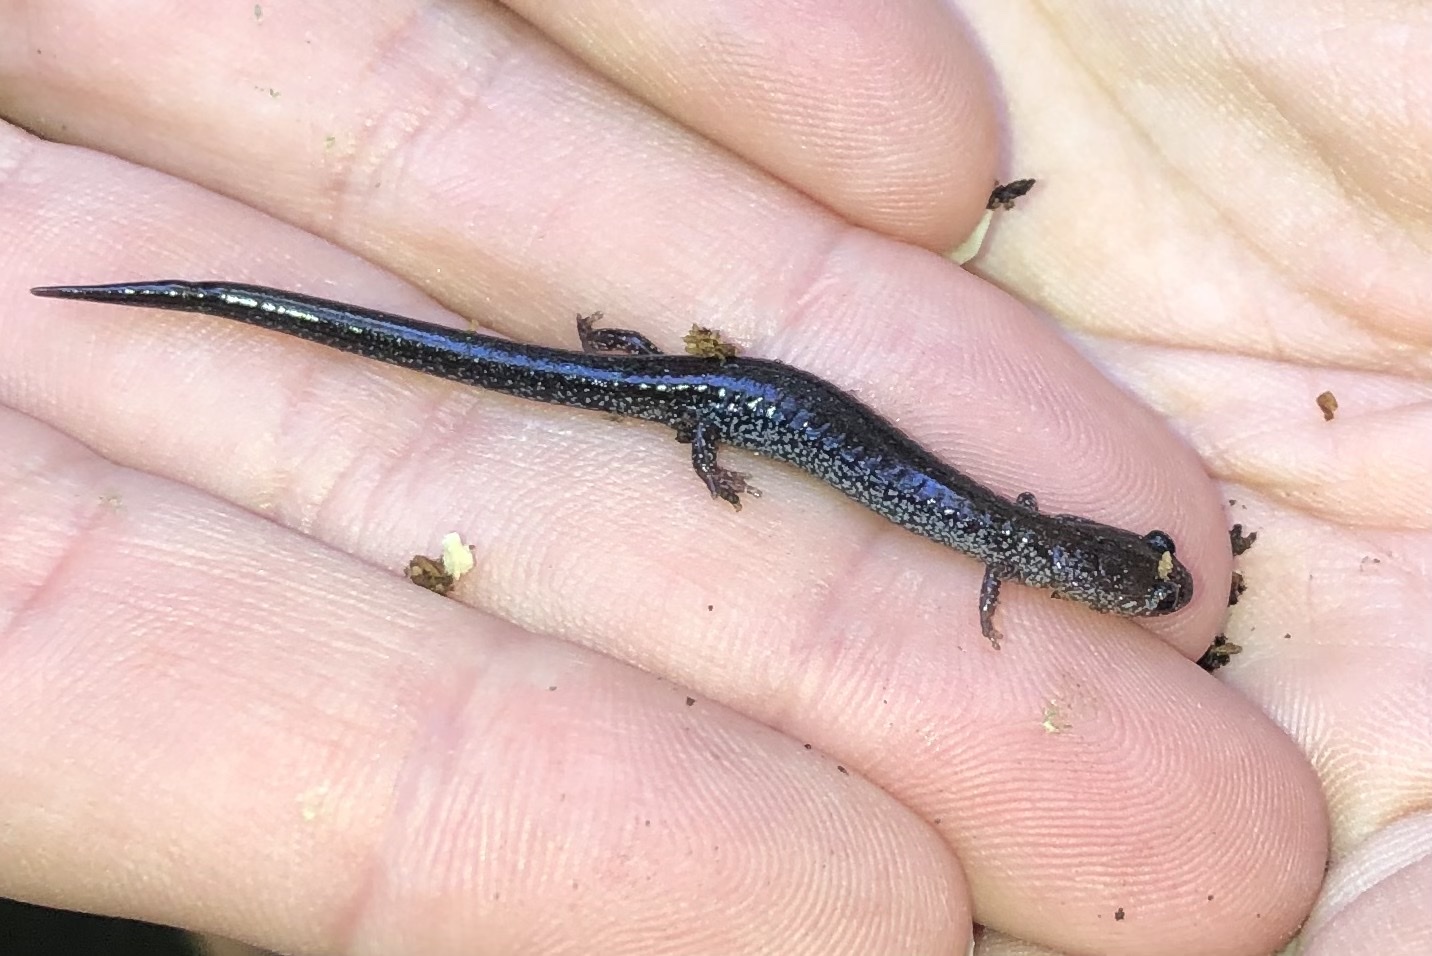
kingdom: Animalia
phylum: Chordata
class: Amphibia
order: Caudata
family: Plethodontidae
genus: Plethodon
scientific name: Plethodon cinereus
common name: Redback salamander
